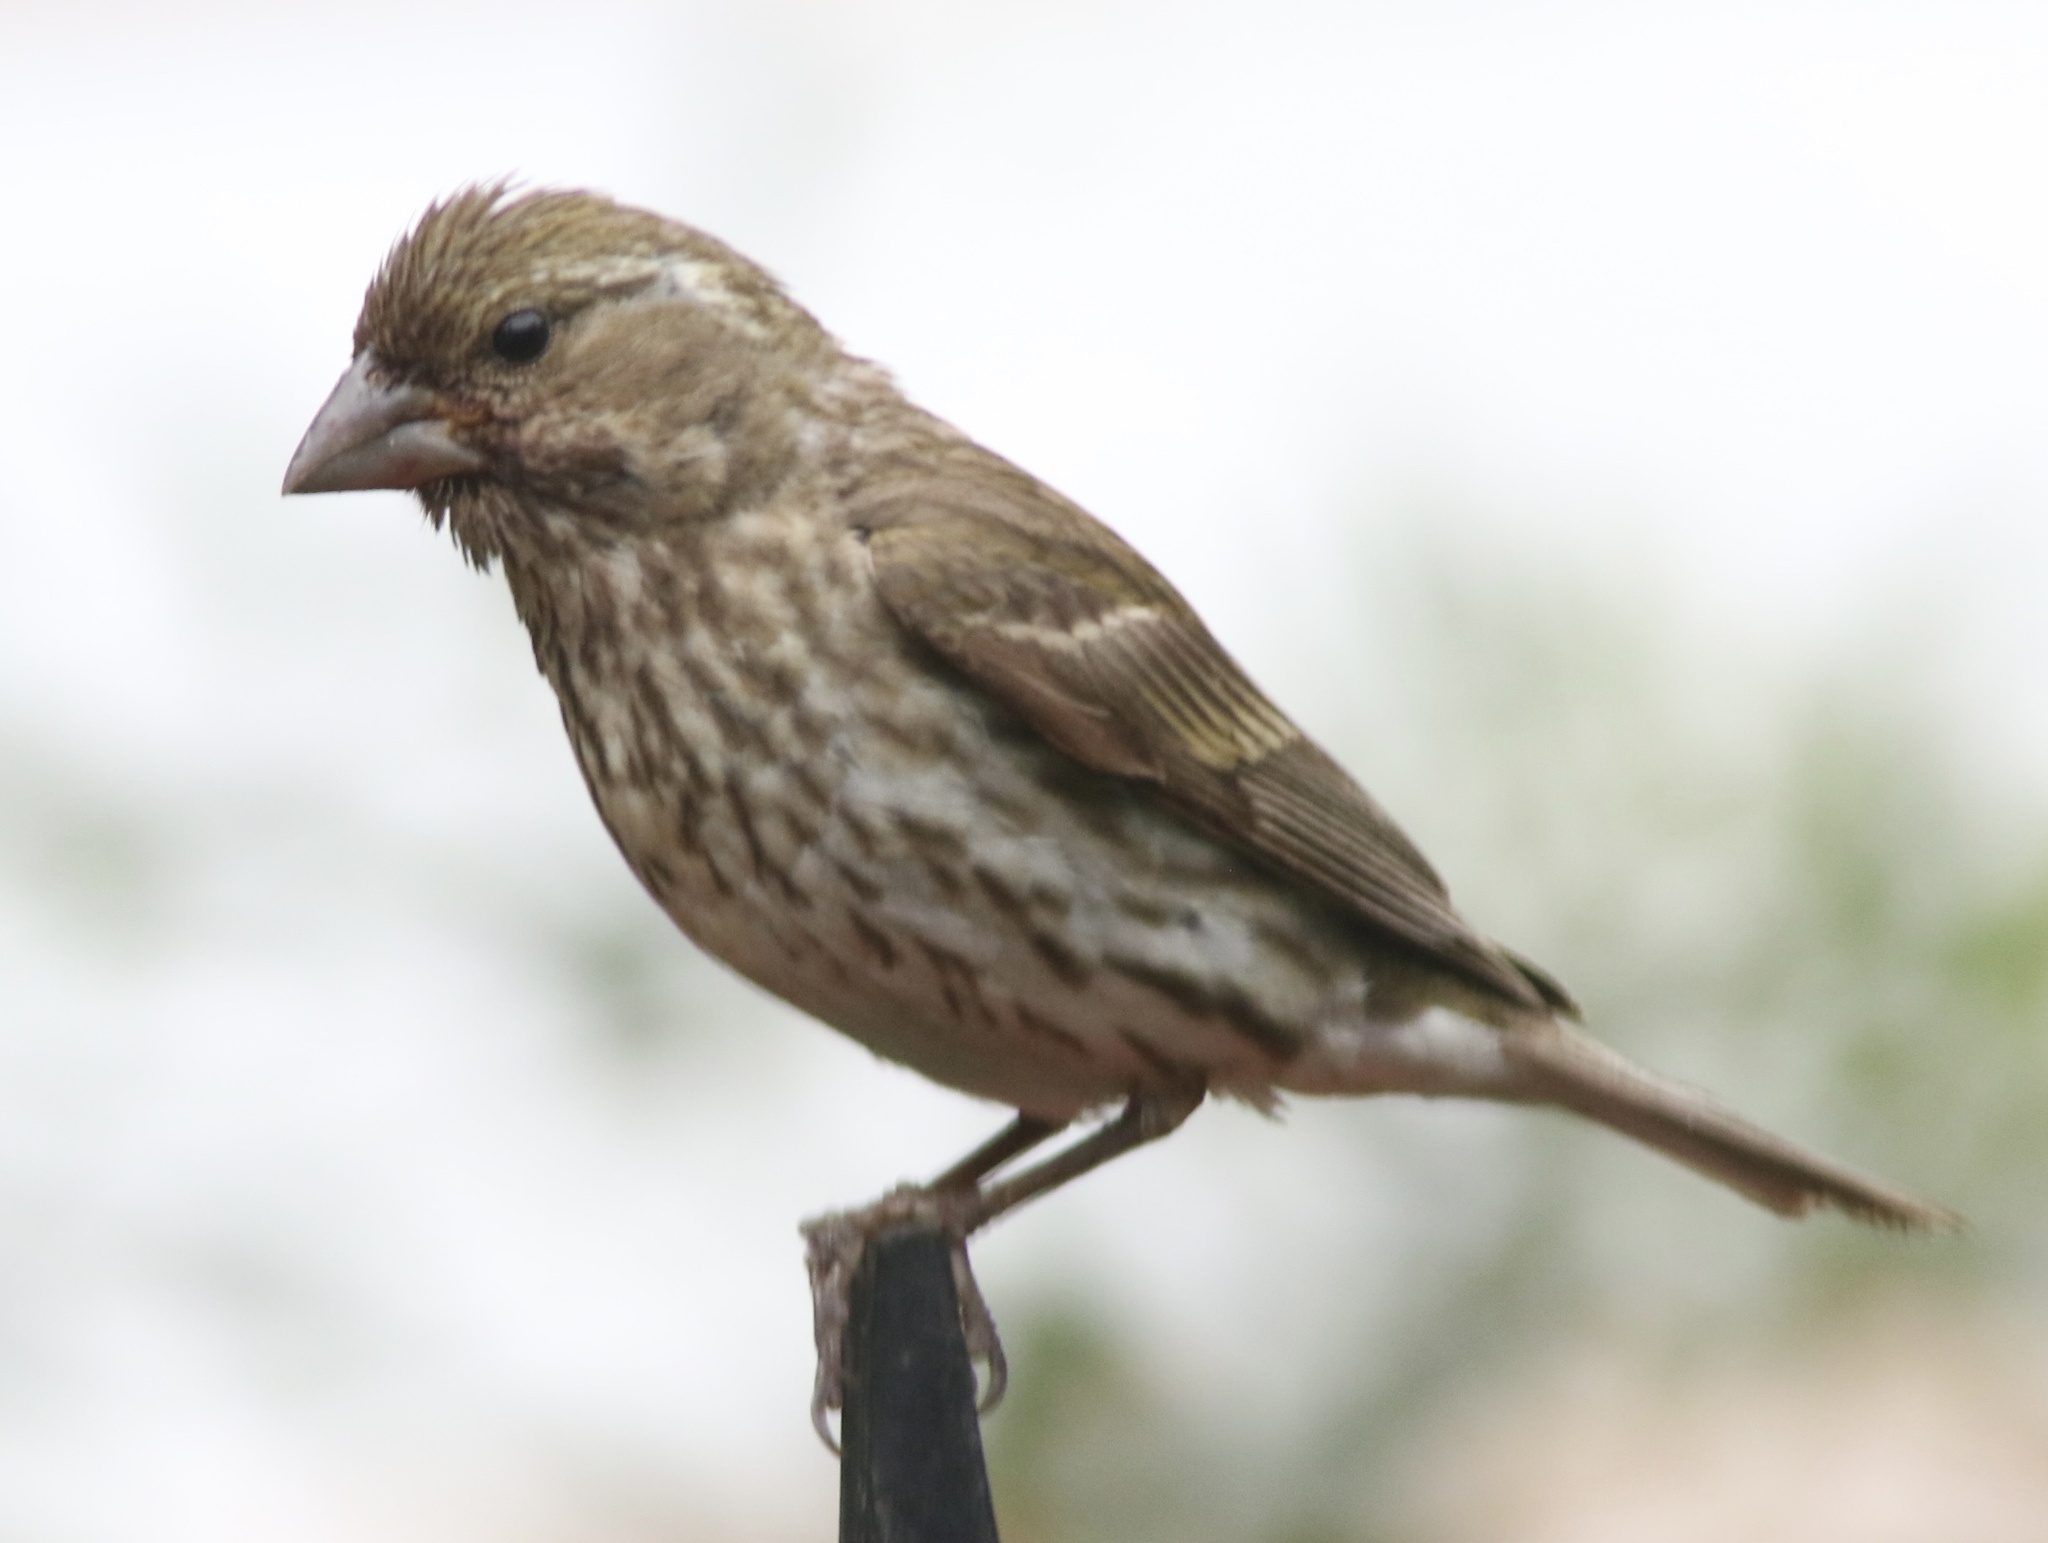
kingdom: Animalia
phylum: Chordata
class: Aves
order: Passeriformes
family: Fringillidae
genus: Haemorhous
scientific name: Haemorhous purpureus
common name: Purple finch
